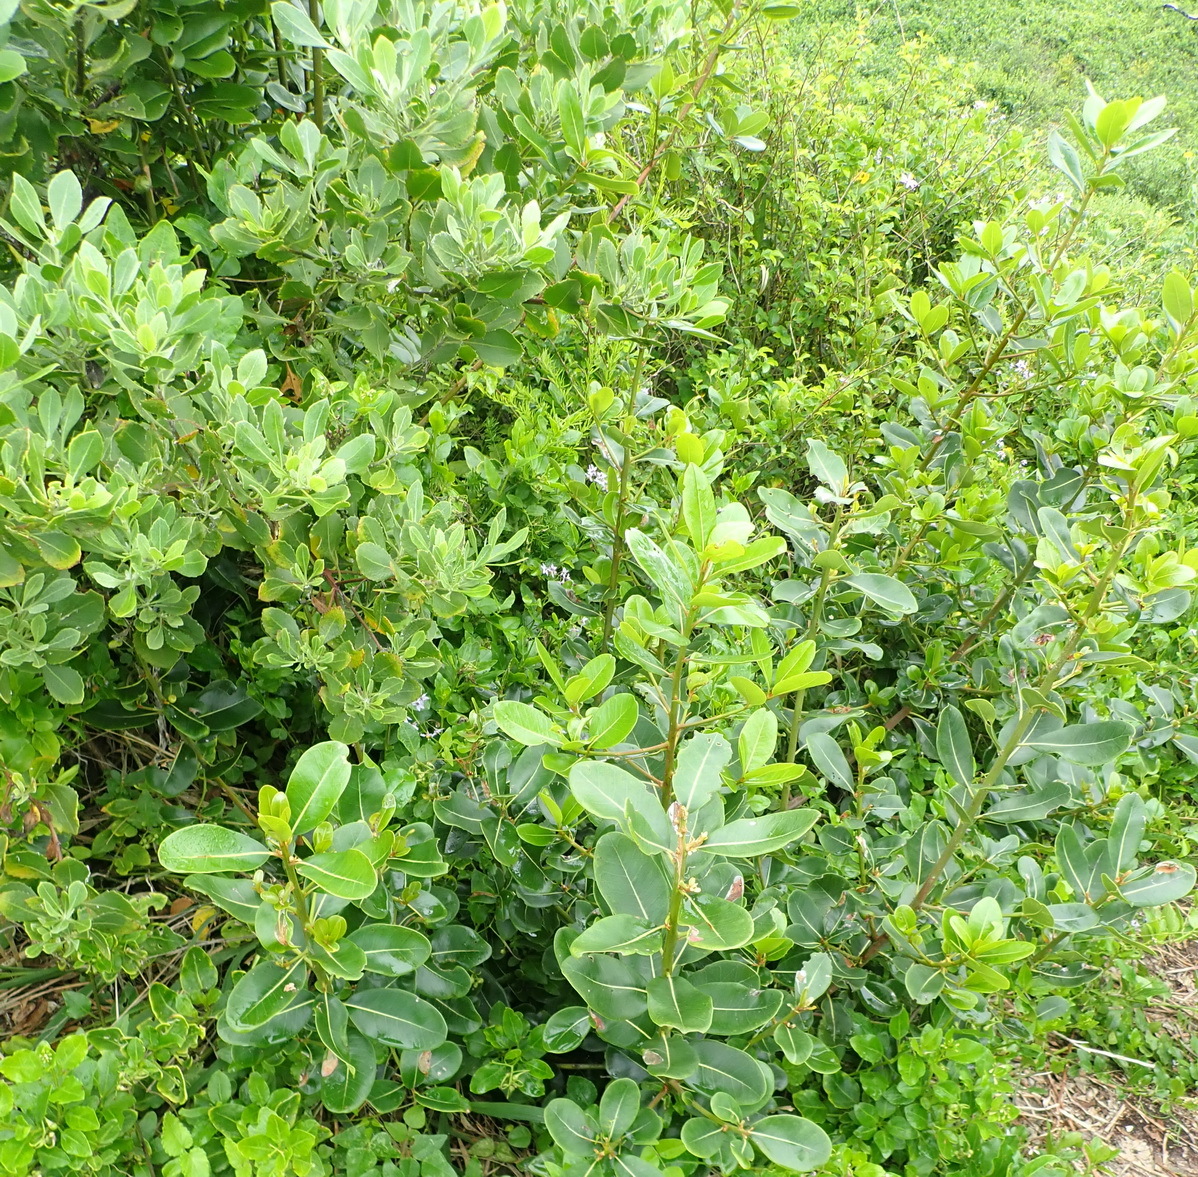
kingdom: Plantae
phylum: Tracheophyta
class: Magnoliopsida
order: Ericales
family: Sapotaceae
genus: Sideroxylon
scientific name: Sideroxylon inerme
